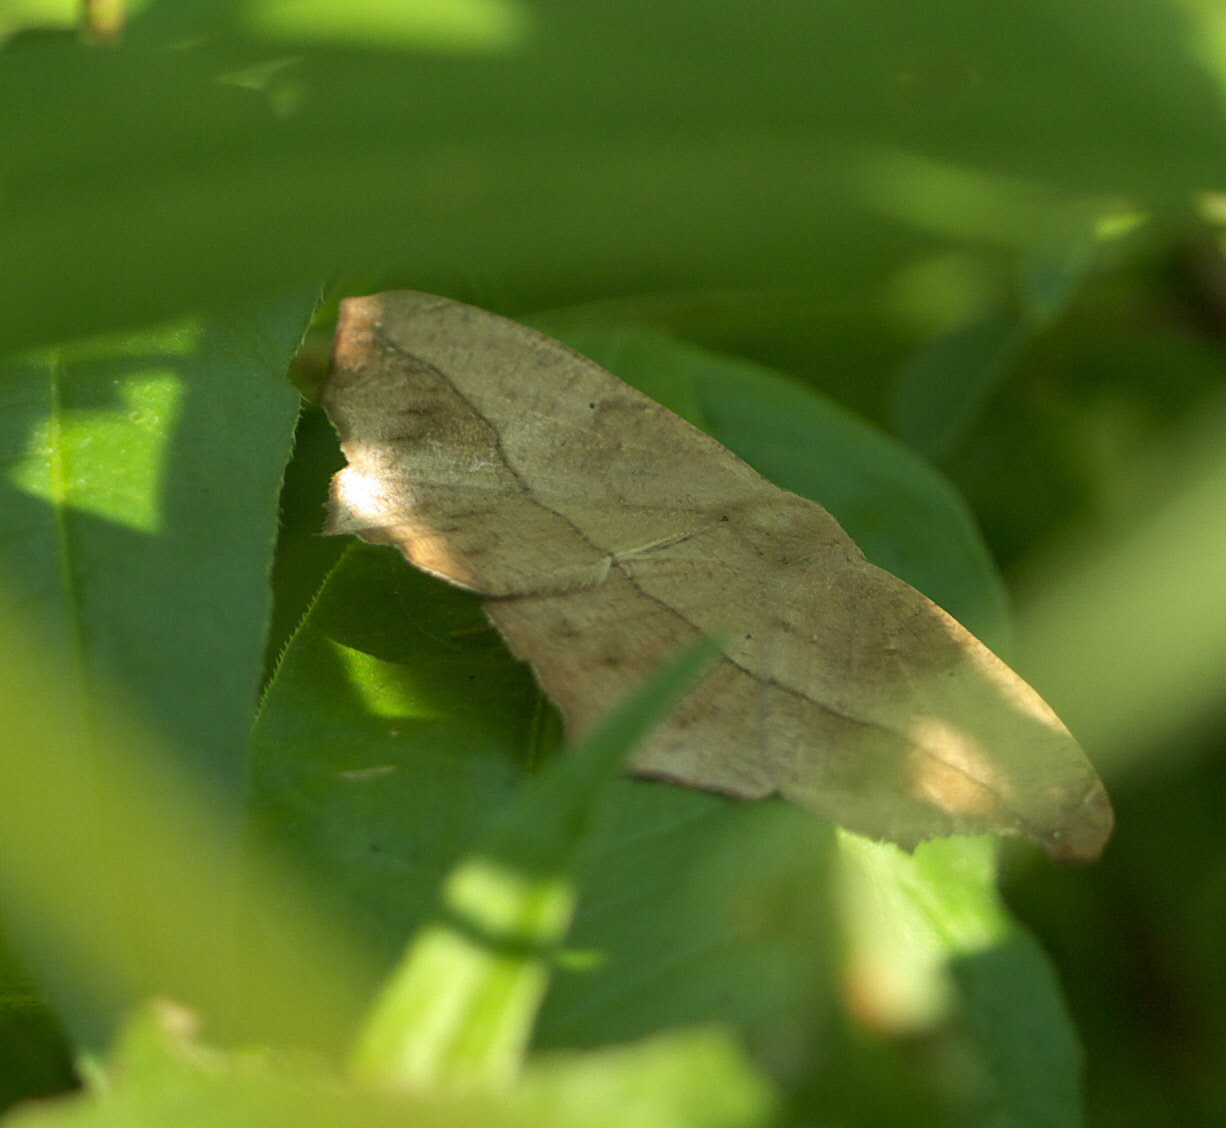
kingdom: Animalia
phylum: Arthropoda
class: Insecta
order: Lepidoptera
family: Geometridae
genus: Prochoerodes
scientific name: Prochoerodes lineola
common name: Large maple spanworm
